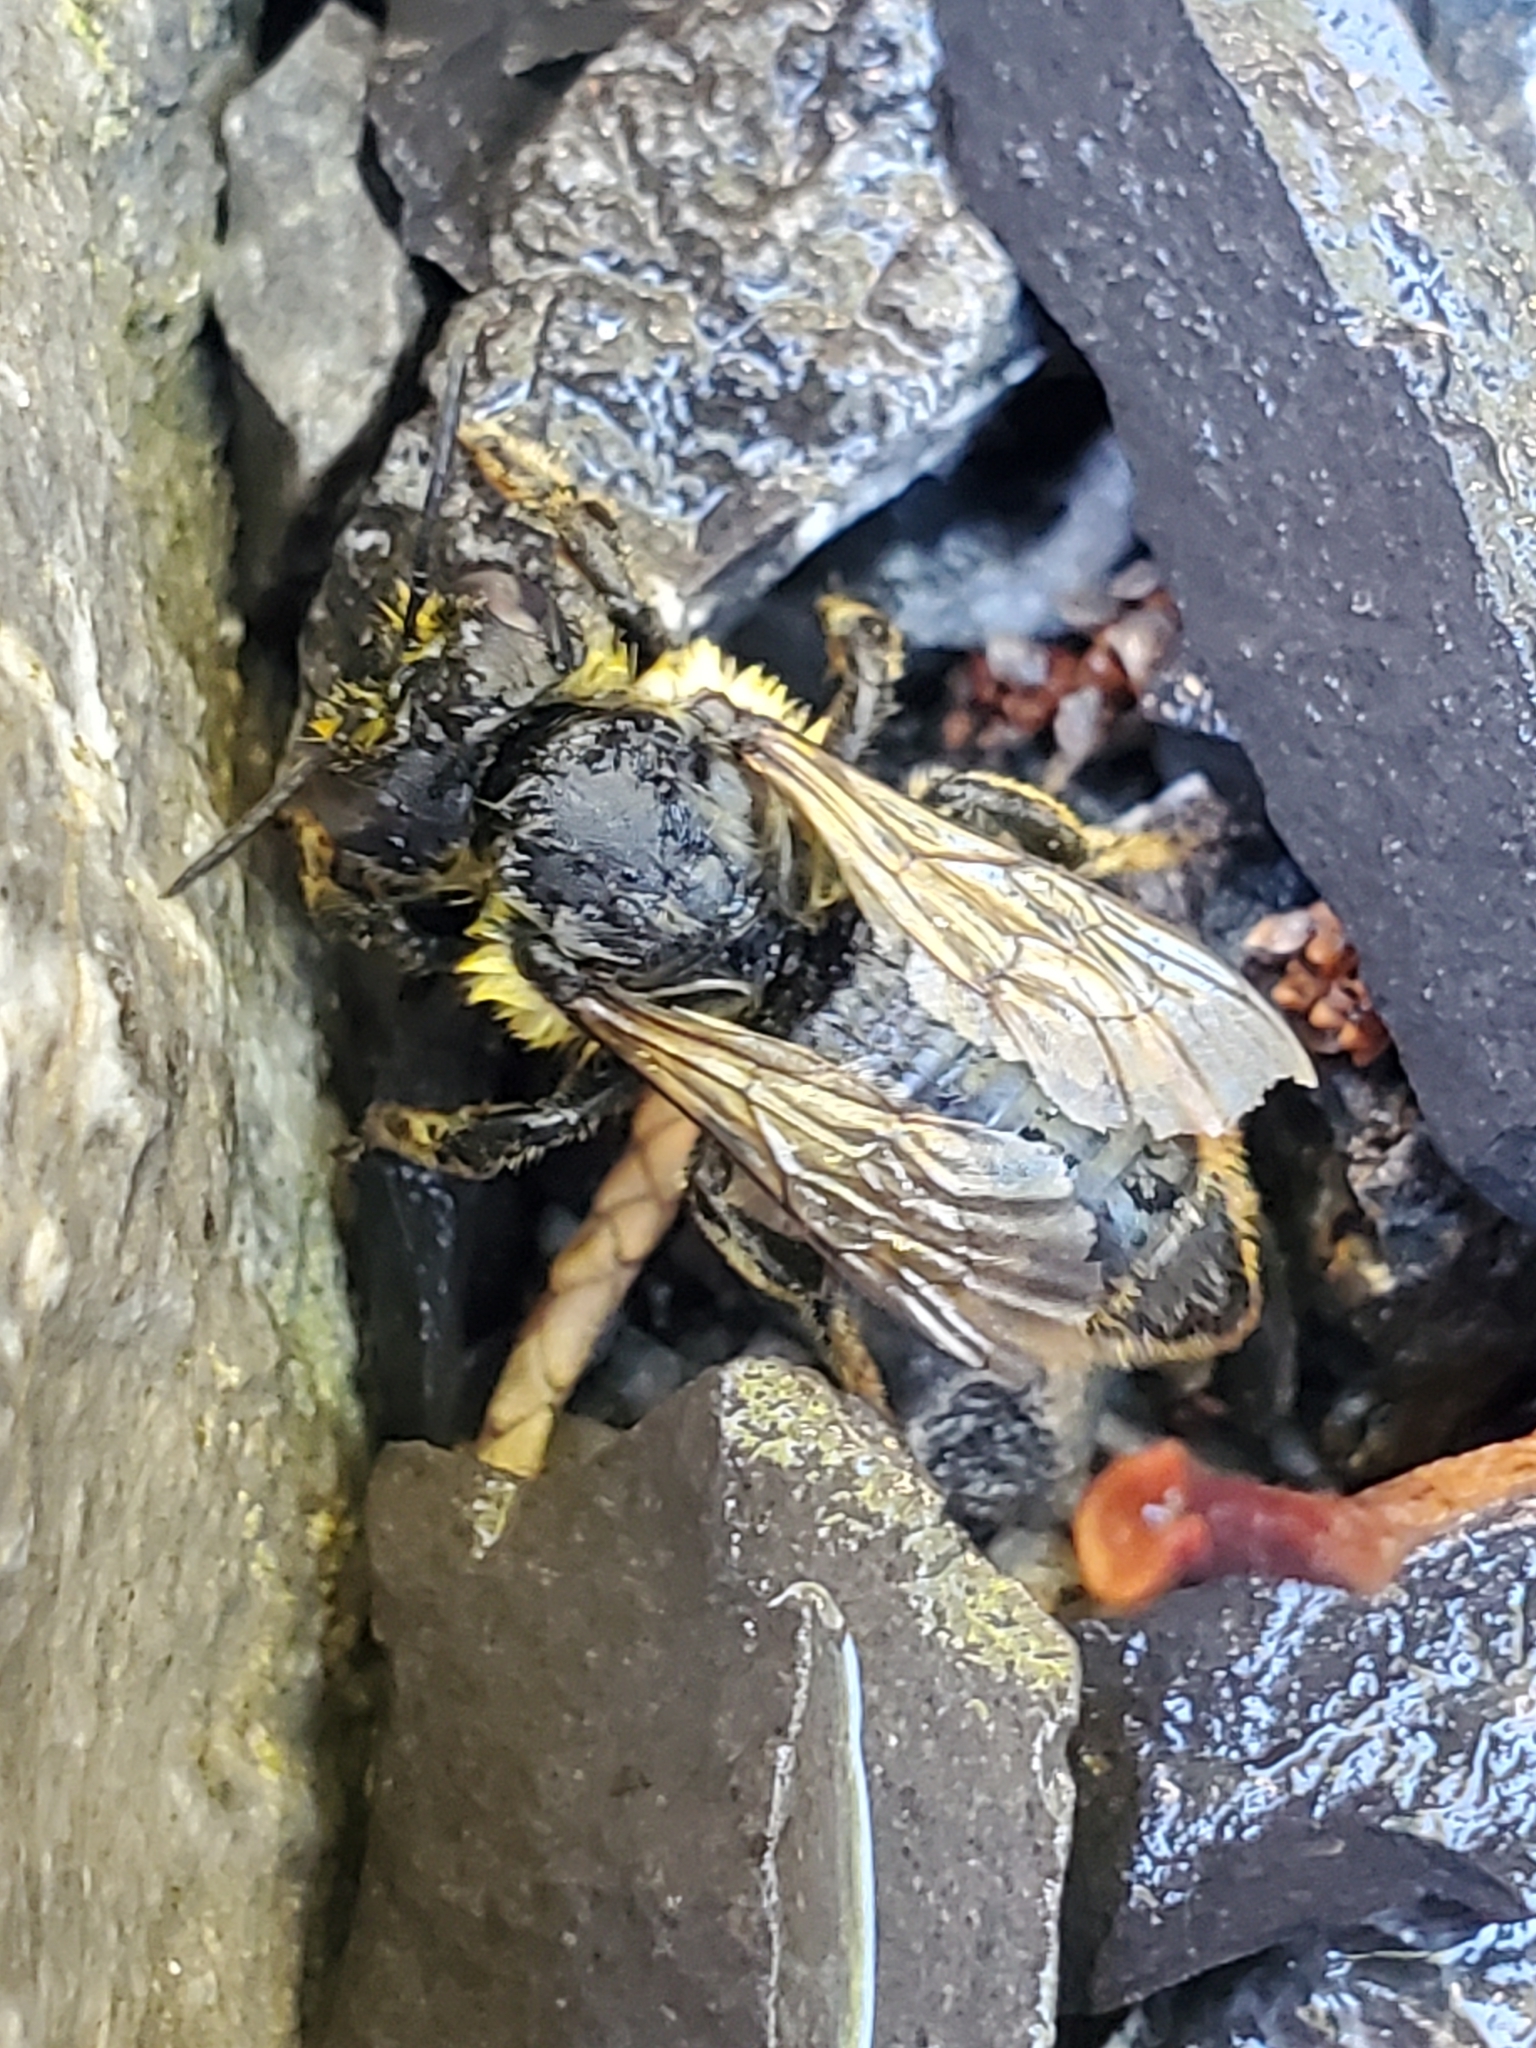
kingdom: Animalia
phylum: Arthropoda
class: Insecta
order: Hymenoptera
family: Megachilidae
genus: Megachile
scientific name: Megachile perihirta
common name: Western leafcutter
